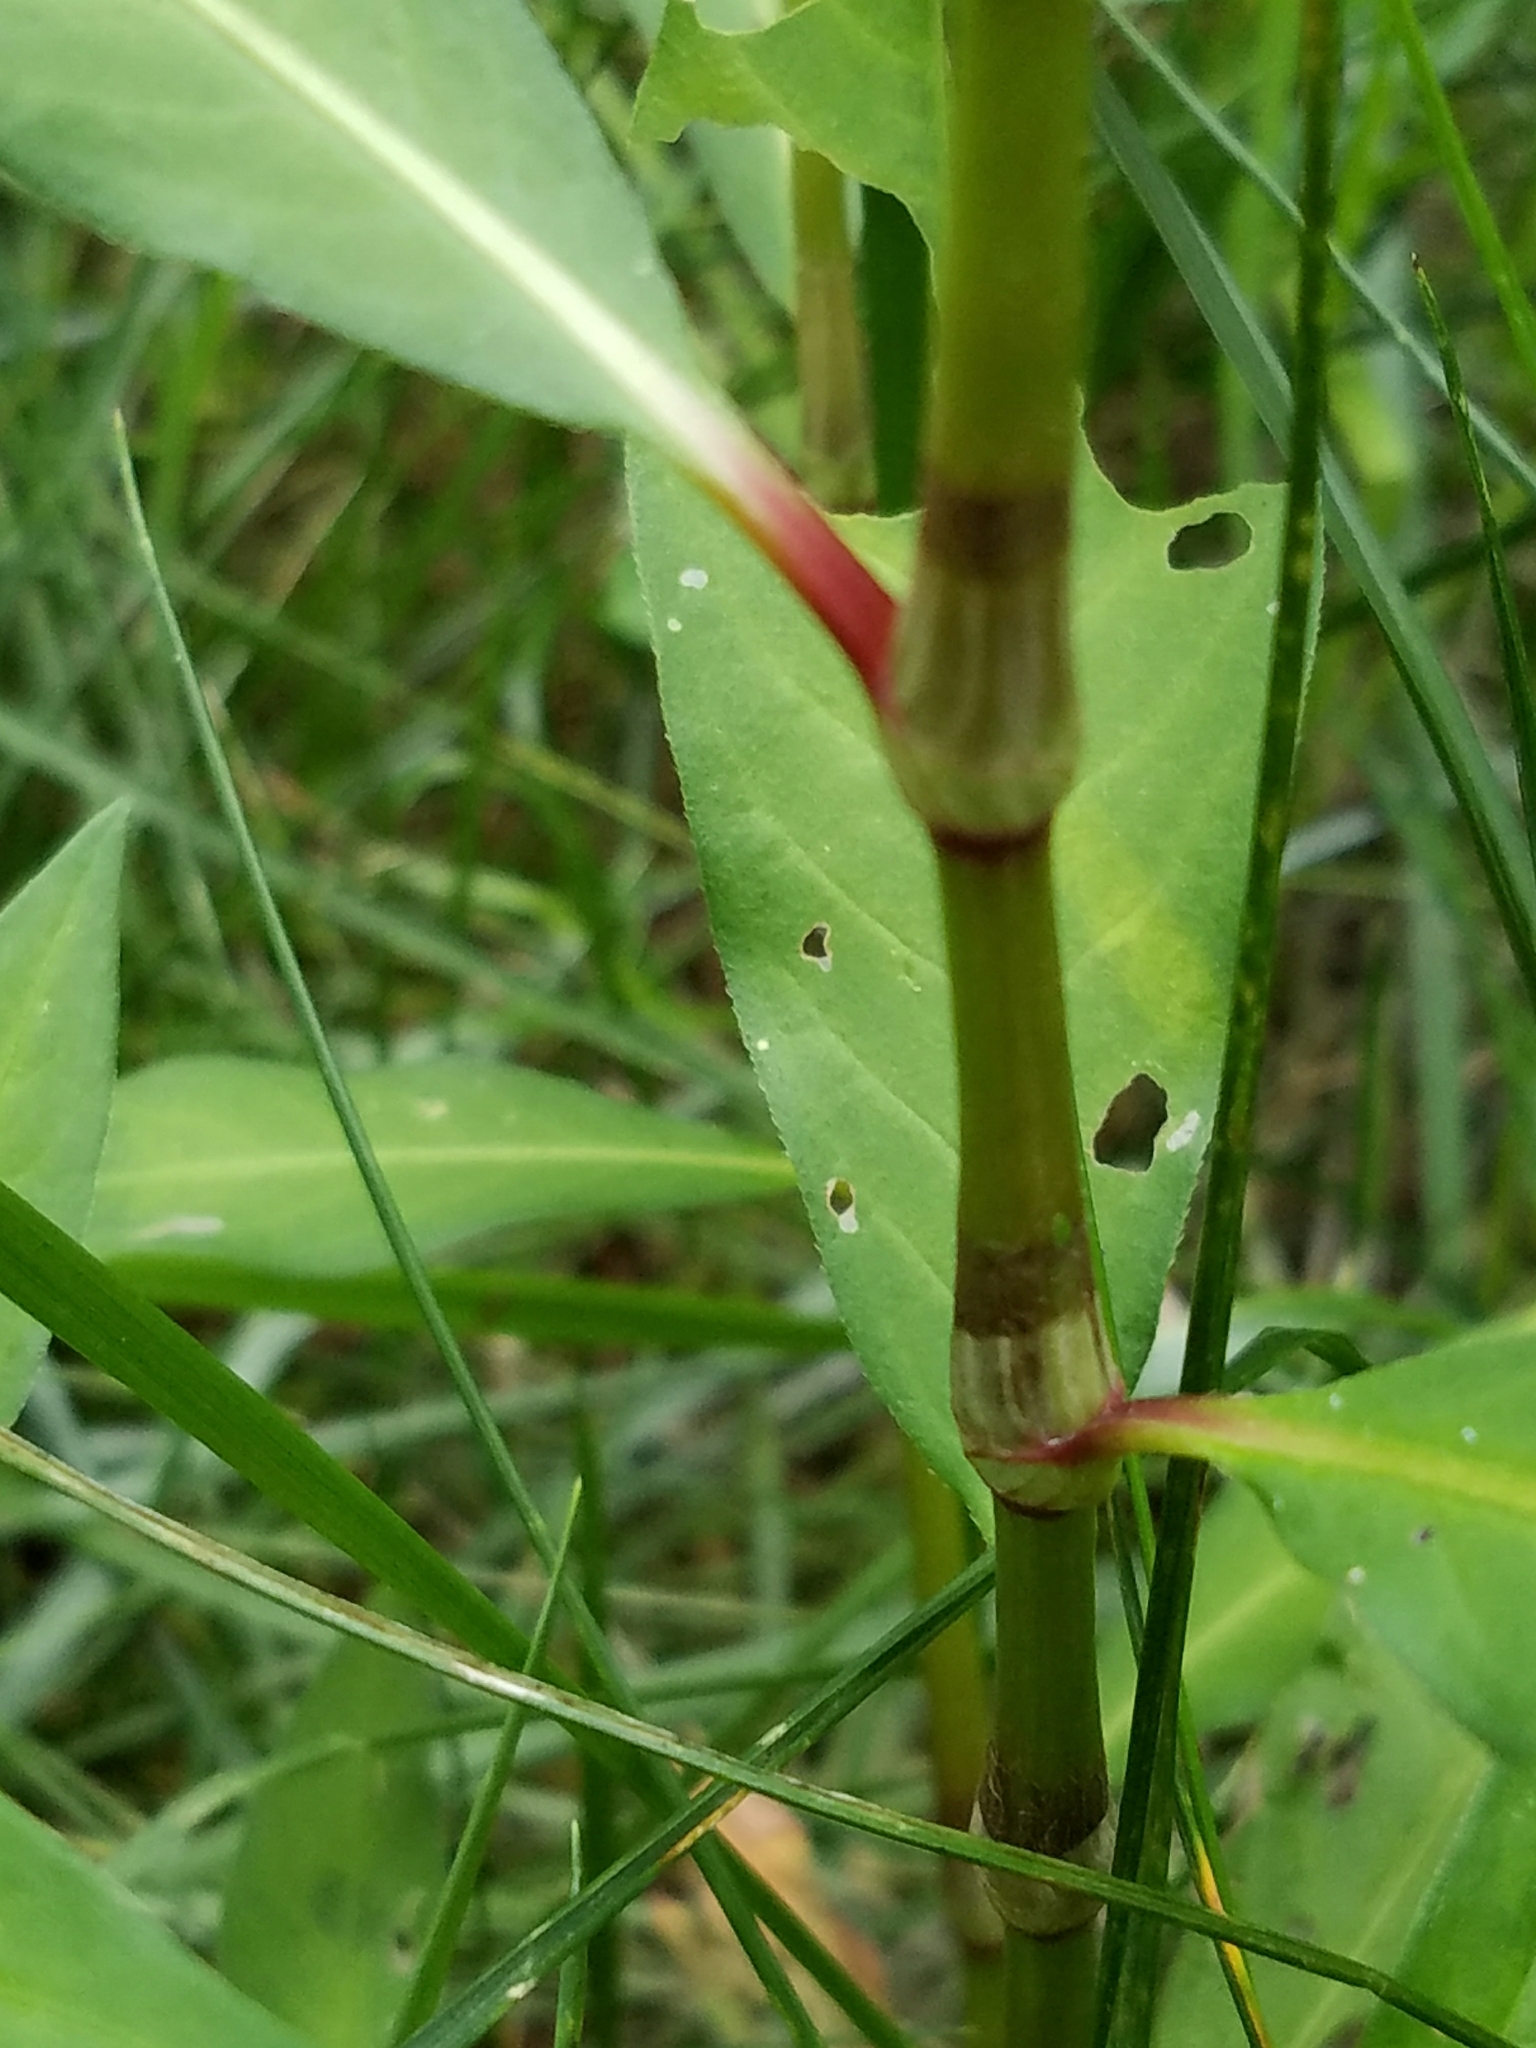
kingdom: Plantae
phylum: Tracheophyta
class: Magnoliopsida
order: Caryophyllales
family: Polygonaceae
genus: Persicaria
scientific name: Persicaria pensylvanica
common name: Pinkweed
